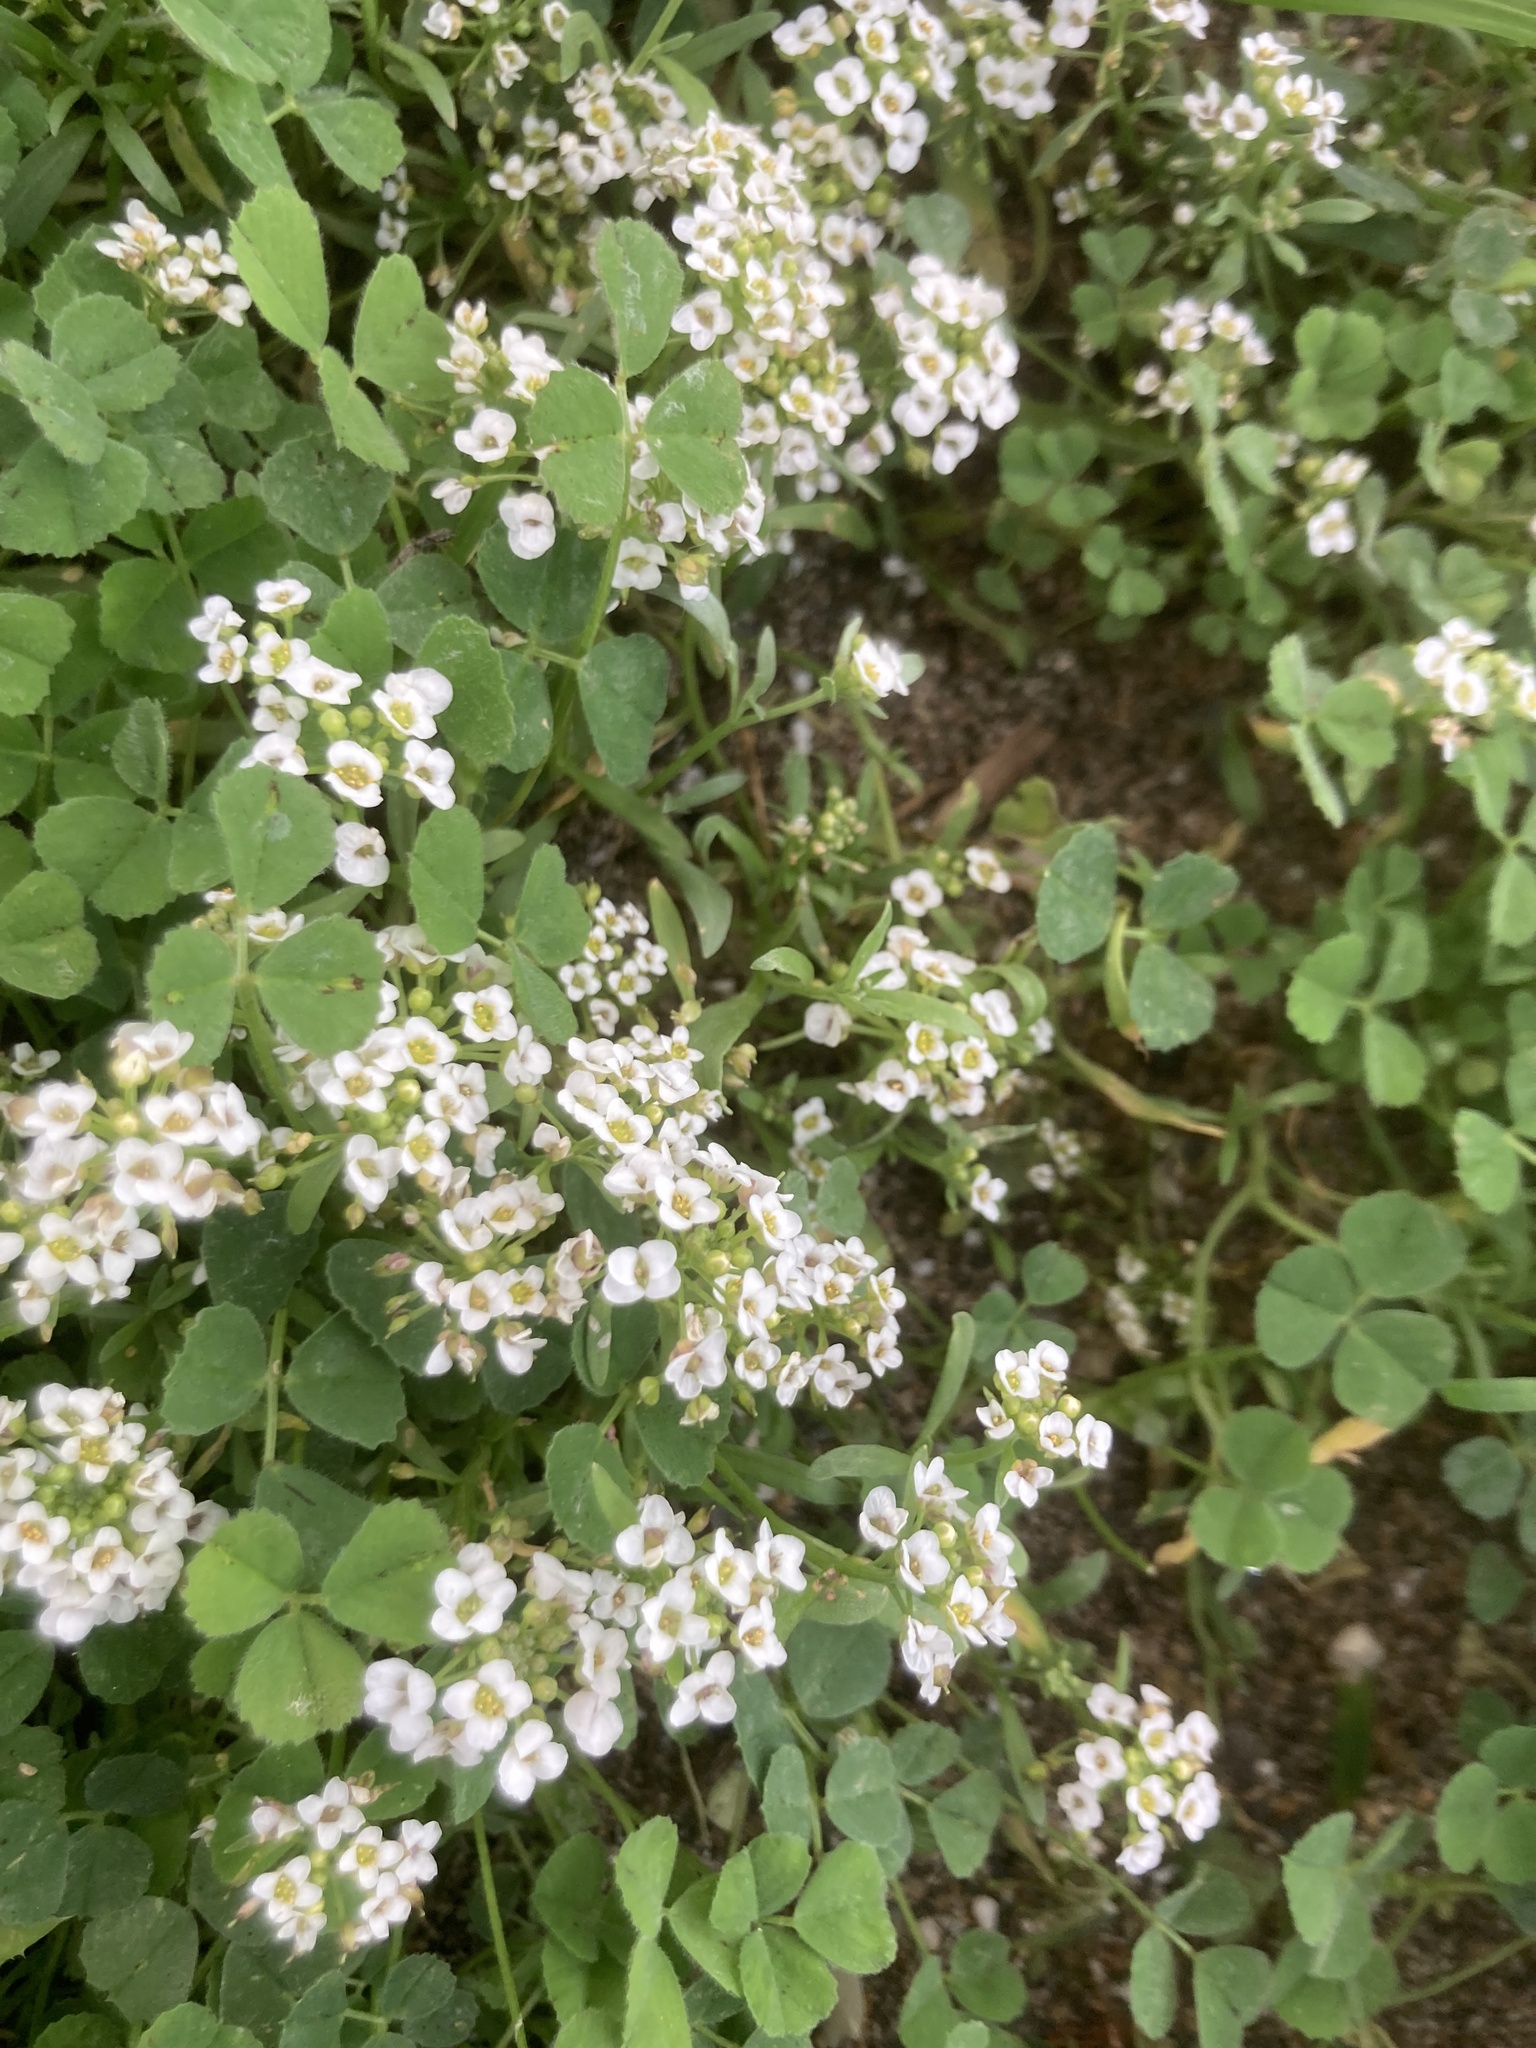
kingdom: Plantae
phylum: Tracheophyta
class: Magnoliopsida
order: Brassicales
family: Brassicaceae
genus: Lobularia
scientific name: Lobularia maritima
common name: Sweet alison
